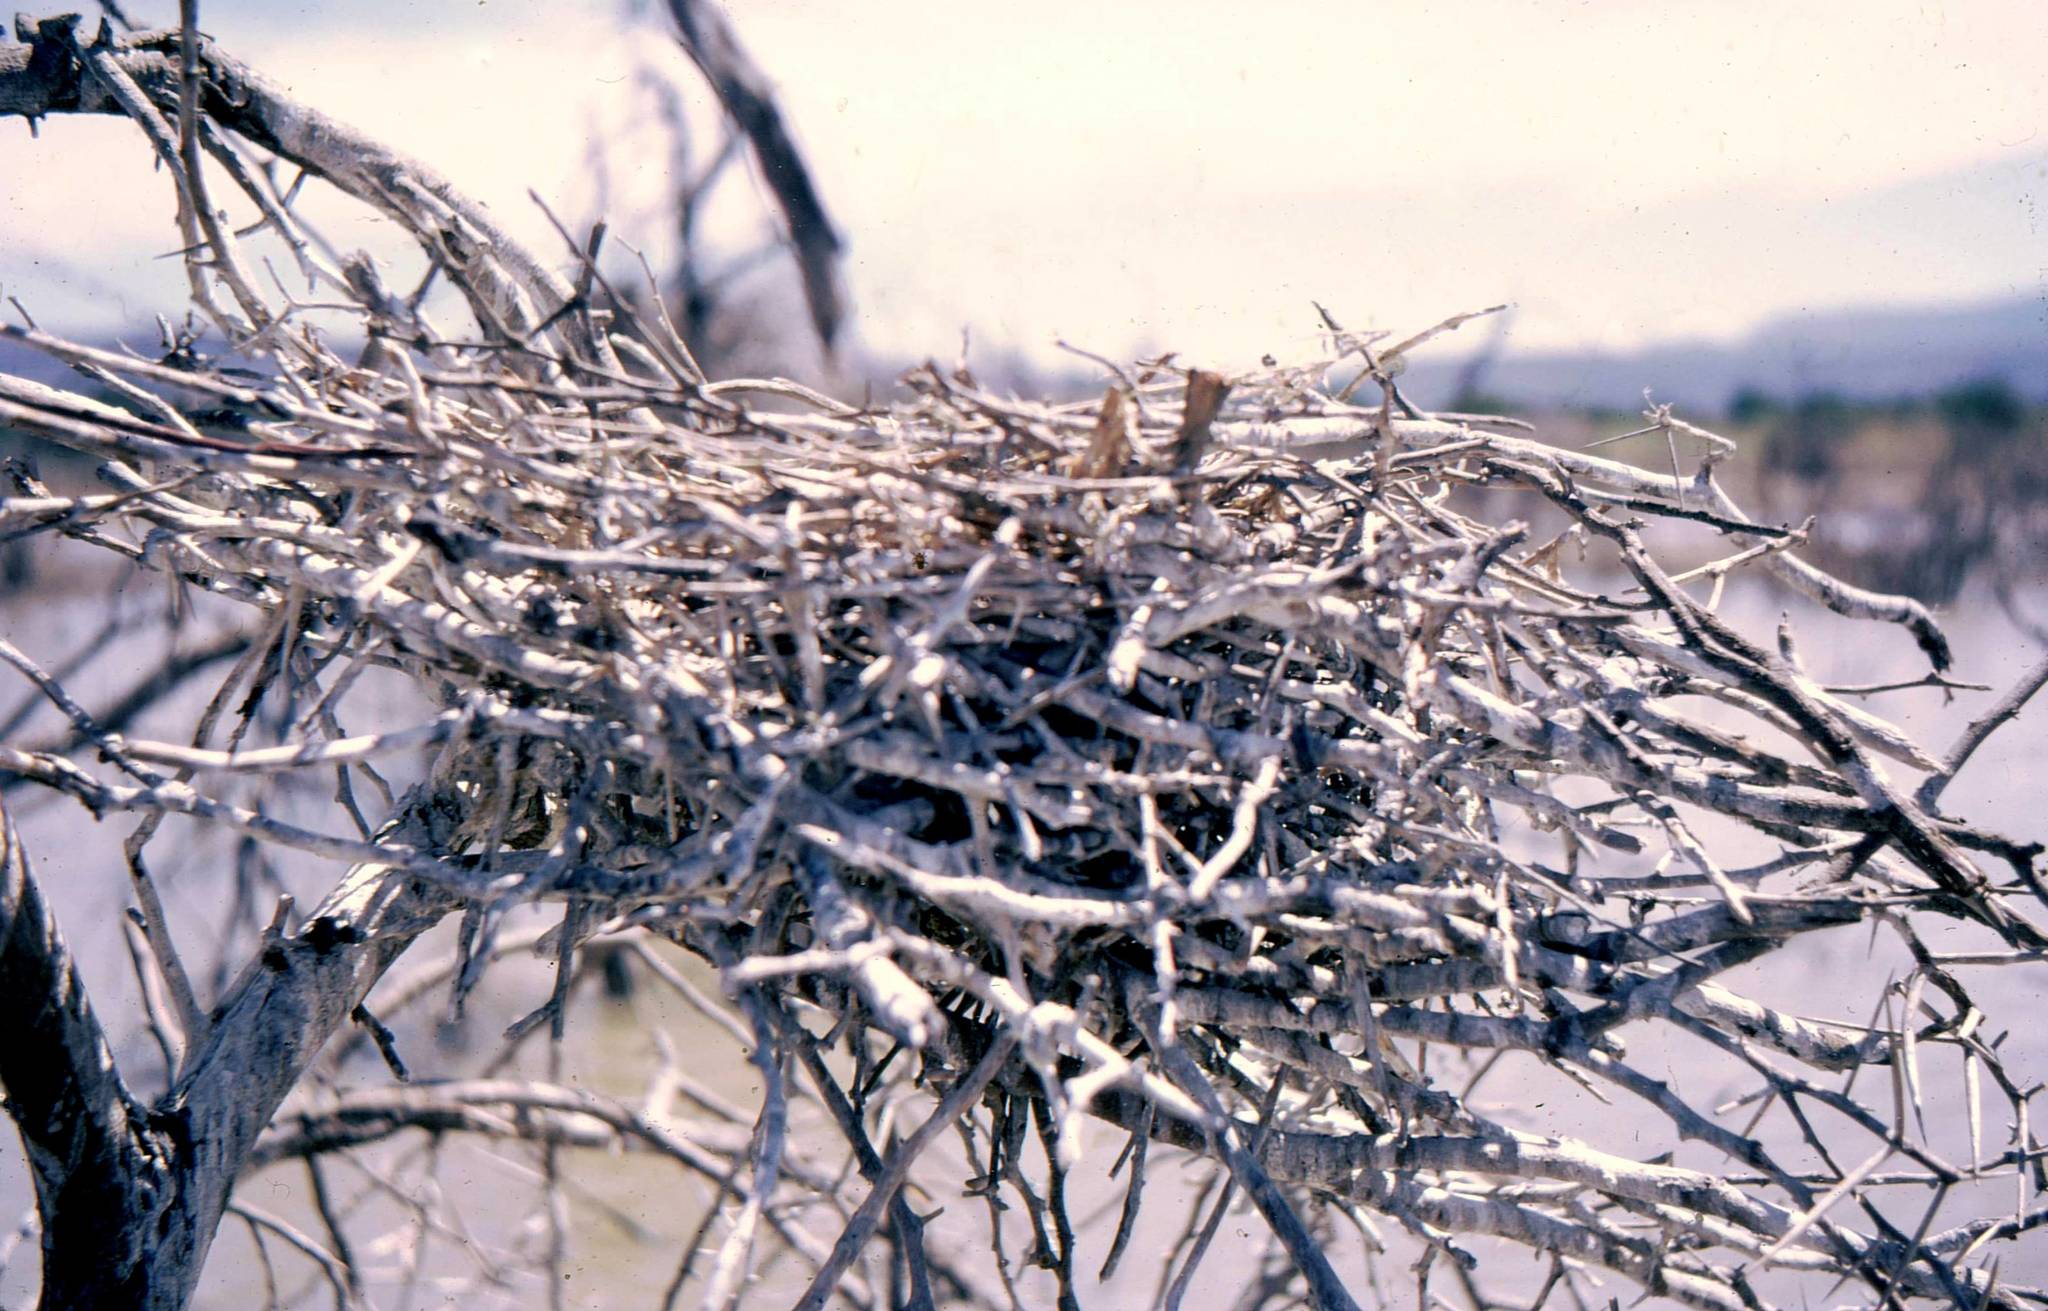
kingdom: Animalia
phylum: Chordata
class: Aves
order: Pelecaniformes
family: Threskiornithidae
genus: Platalea
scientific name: Platalea alba
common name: African spoonbill
